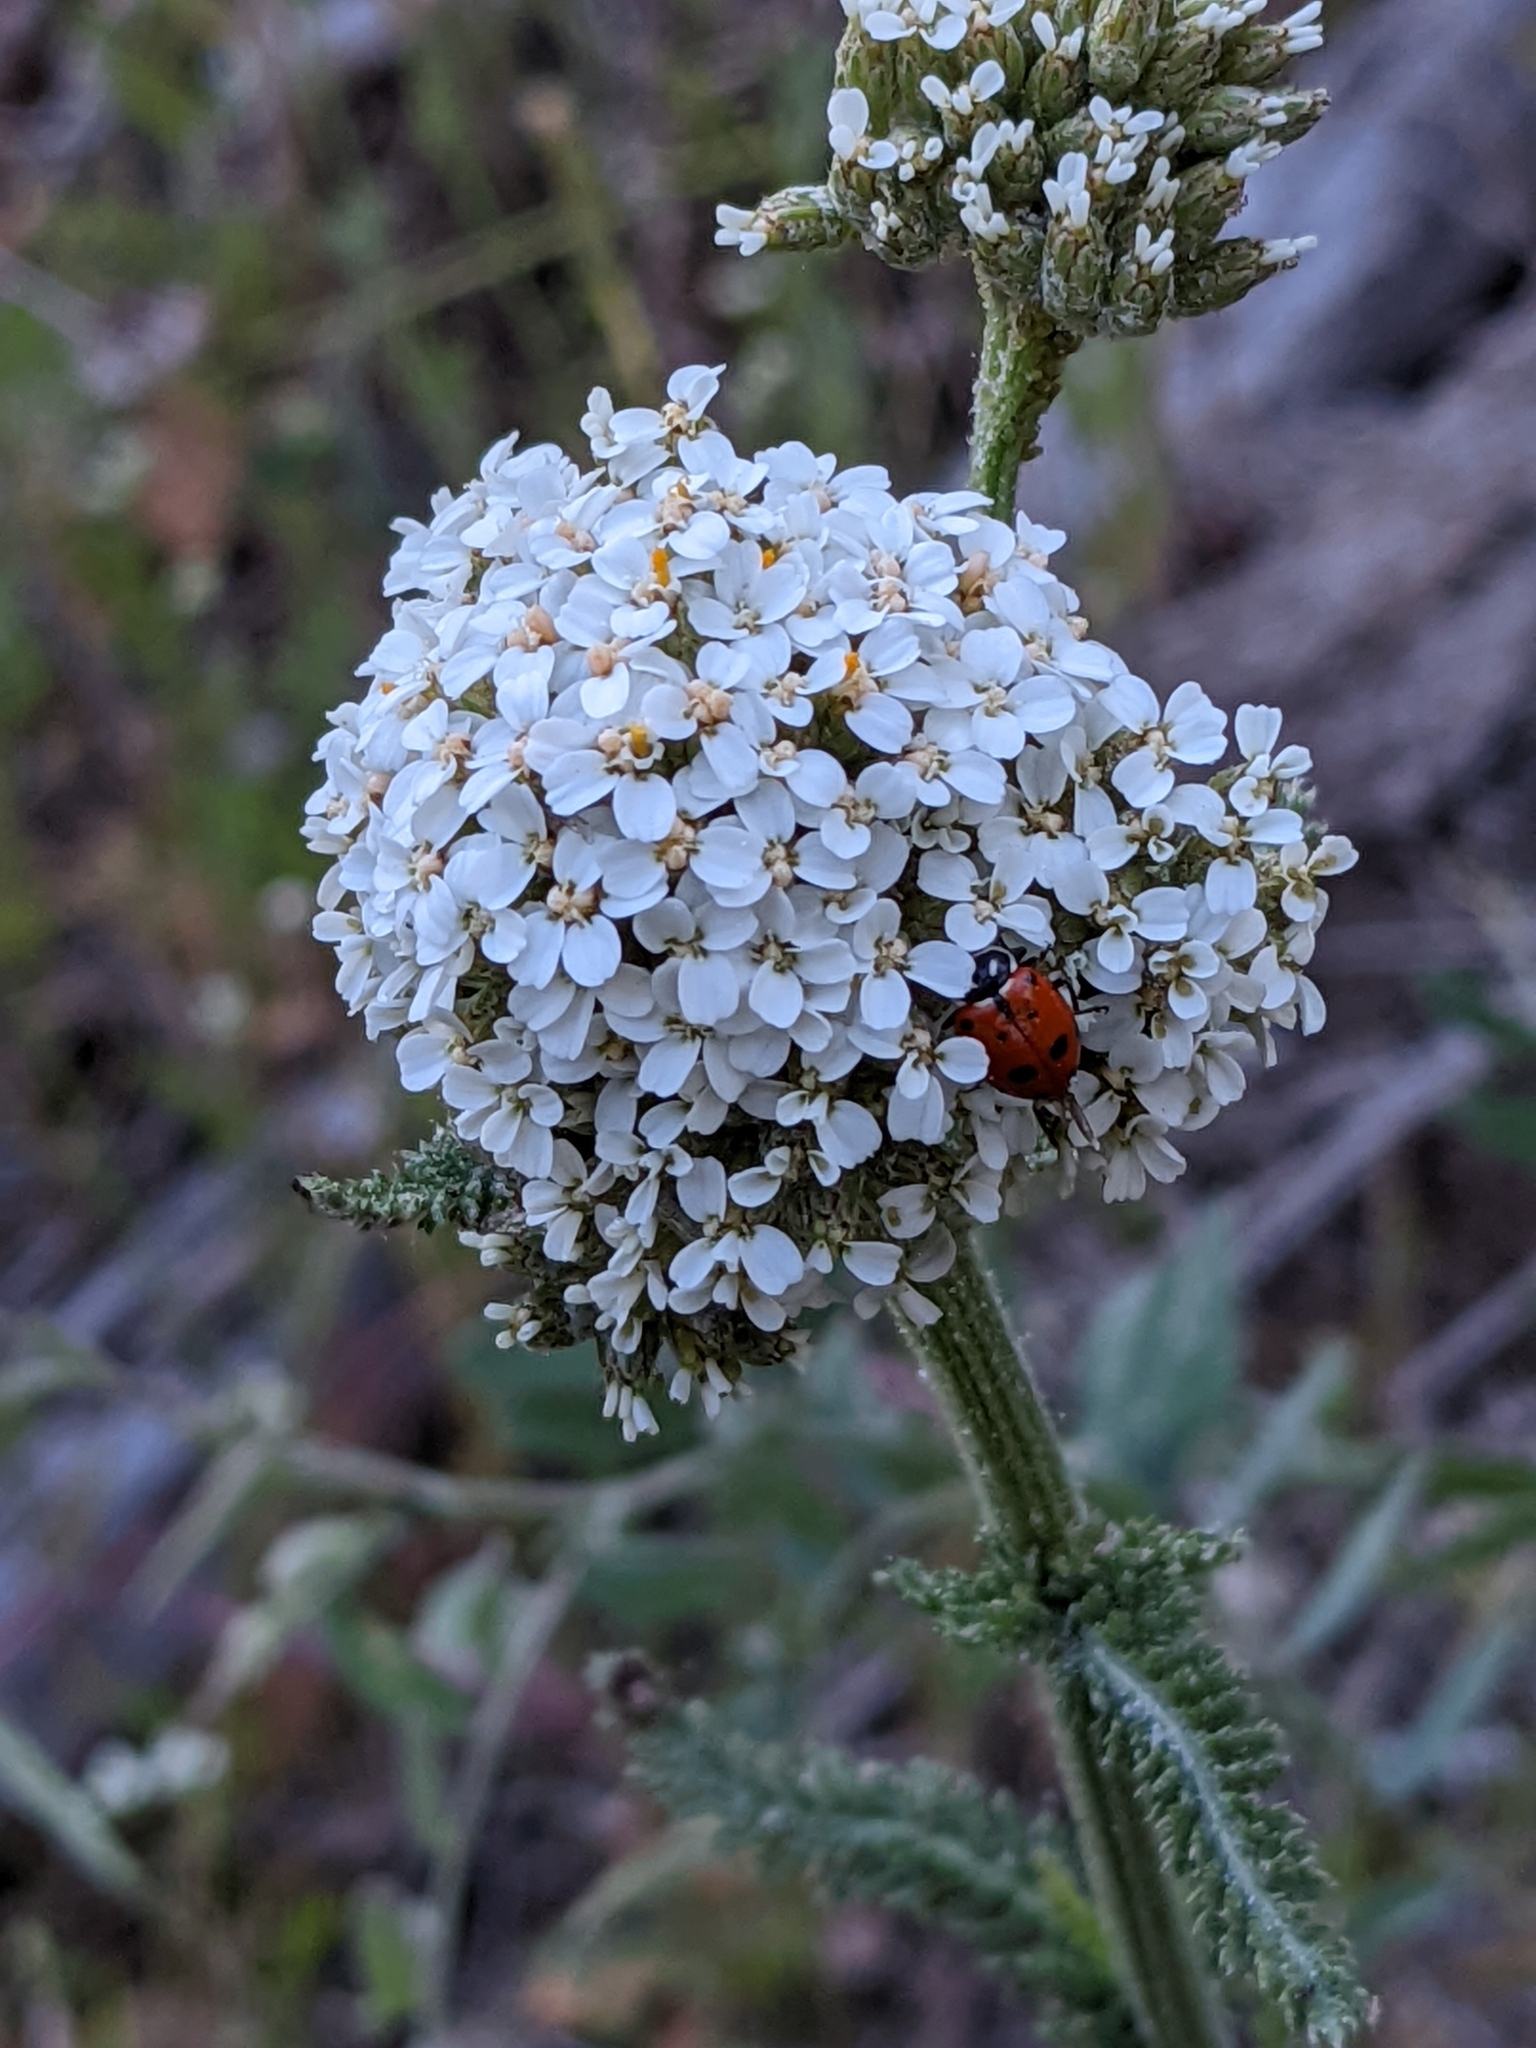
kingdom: Animalia
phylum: Arthropoda
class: Insecta
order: Coleoptera
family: Coccinellidae
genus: Hippodamia
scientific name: Hippodamia convergens
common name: Convergent lady beetle
